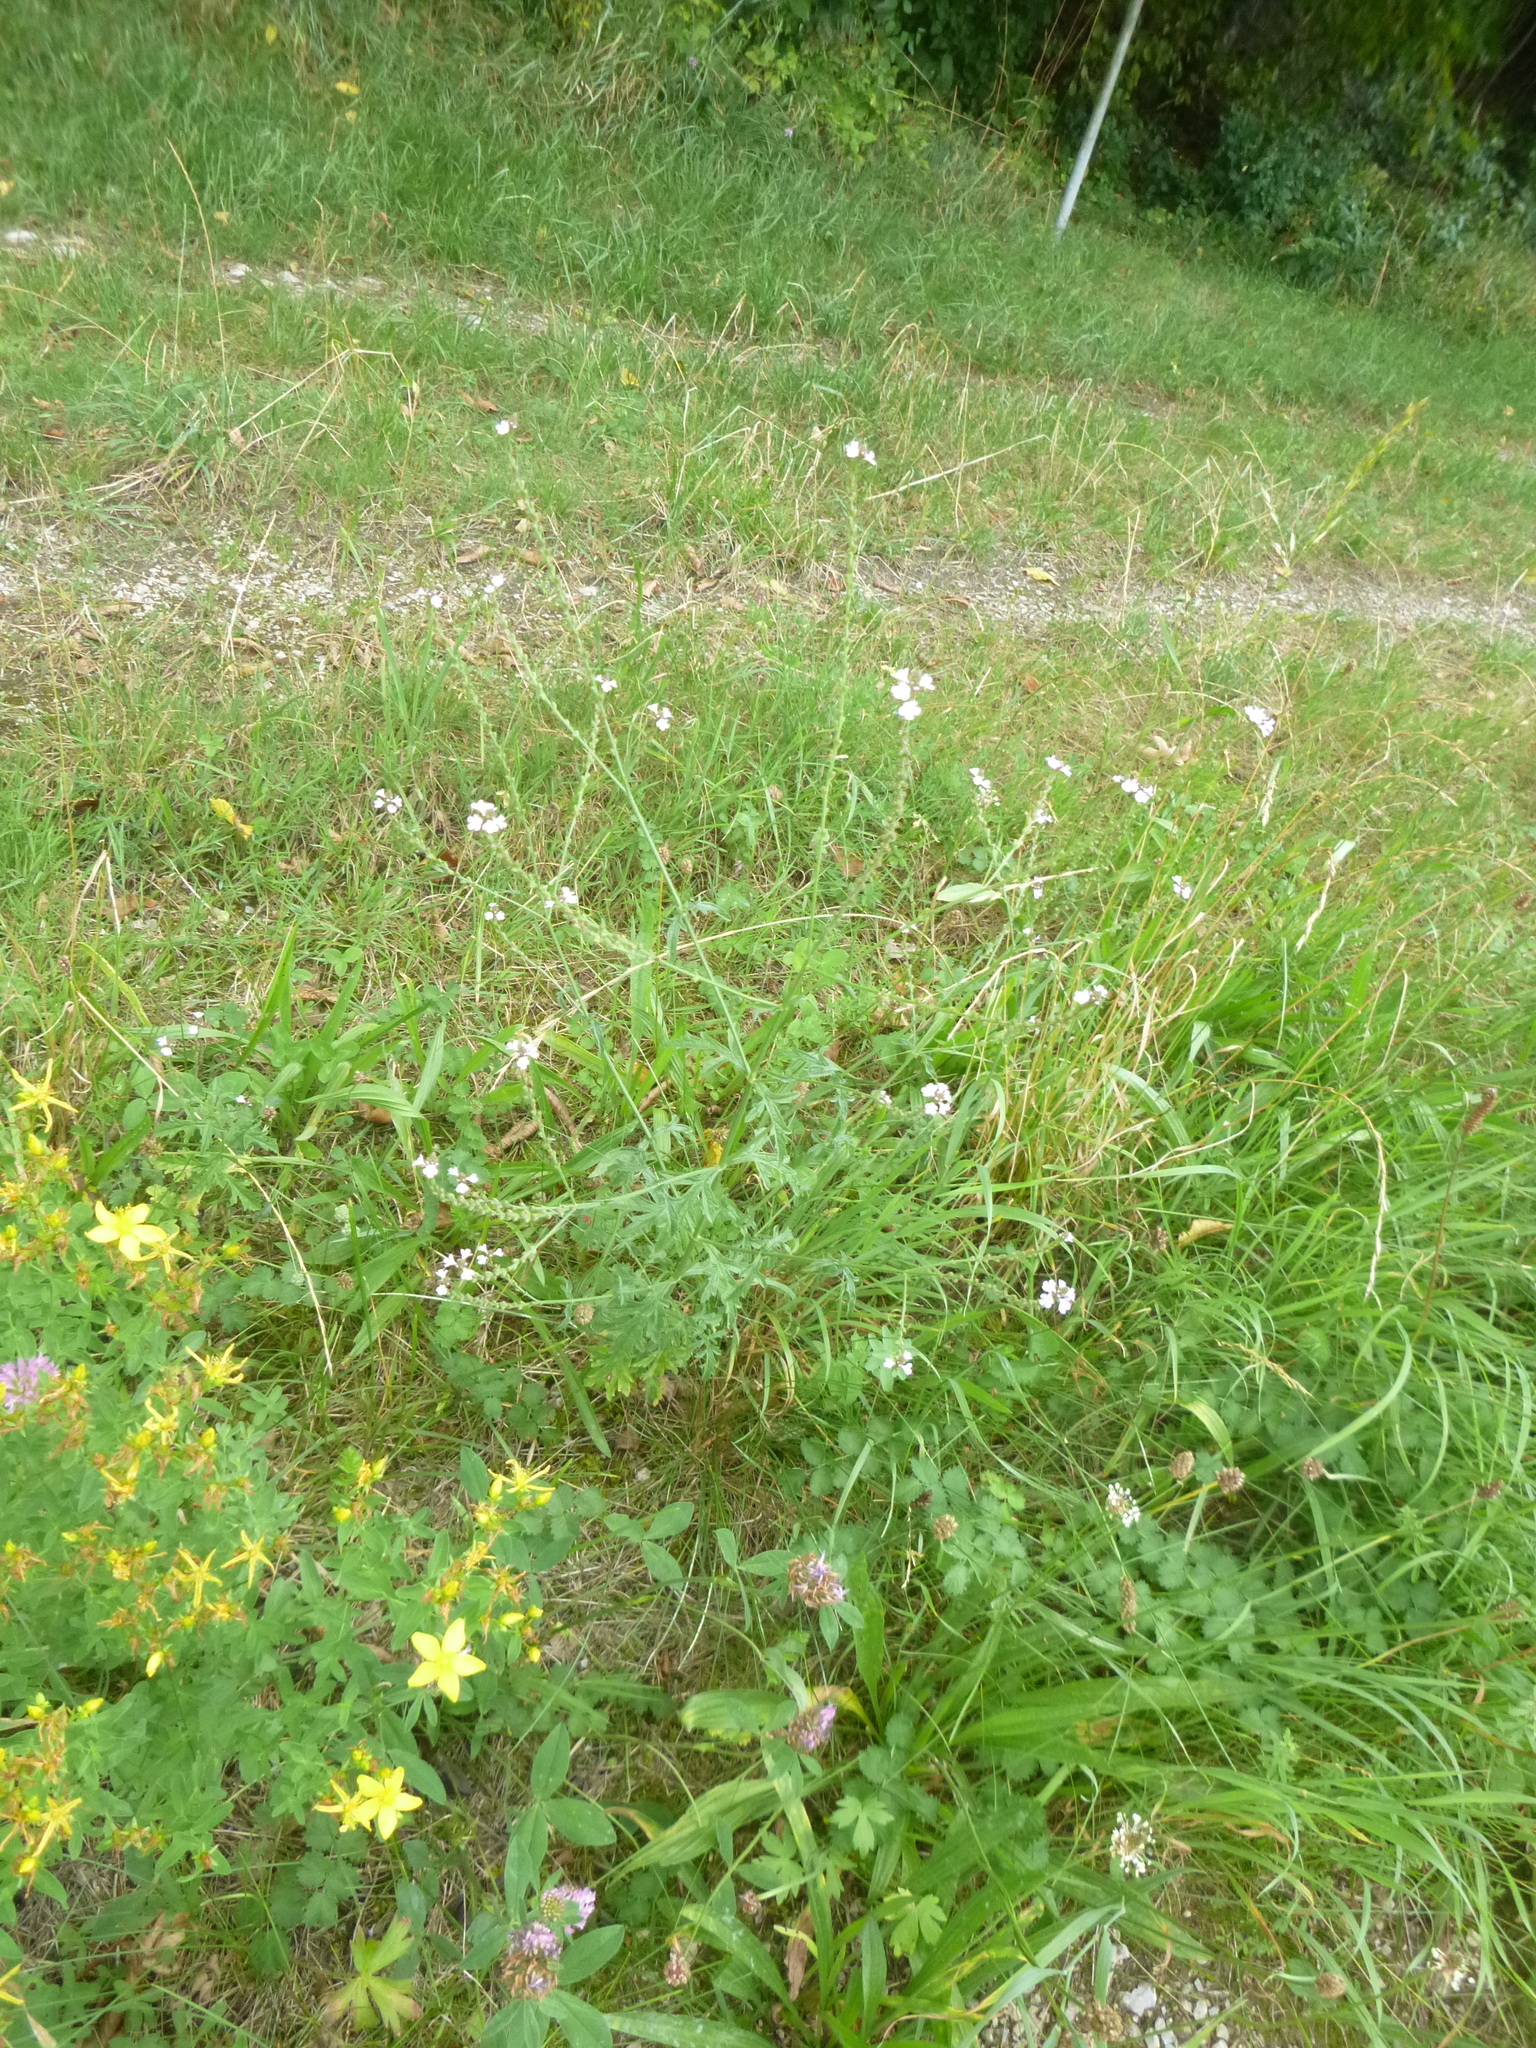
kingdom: Plantae
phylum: Tracheophyta
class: Magnoliopsida
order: Lamiales
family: Verbenaceae
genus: Verbena
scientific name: Verbena officinalis
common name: Vervain
